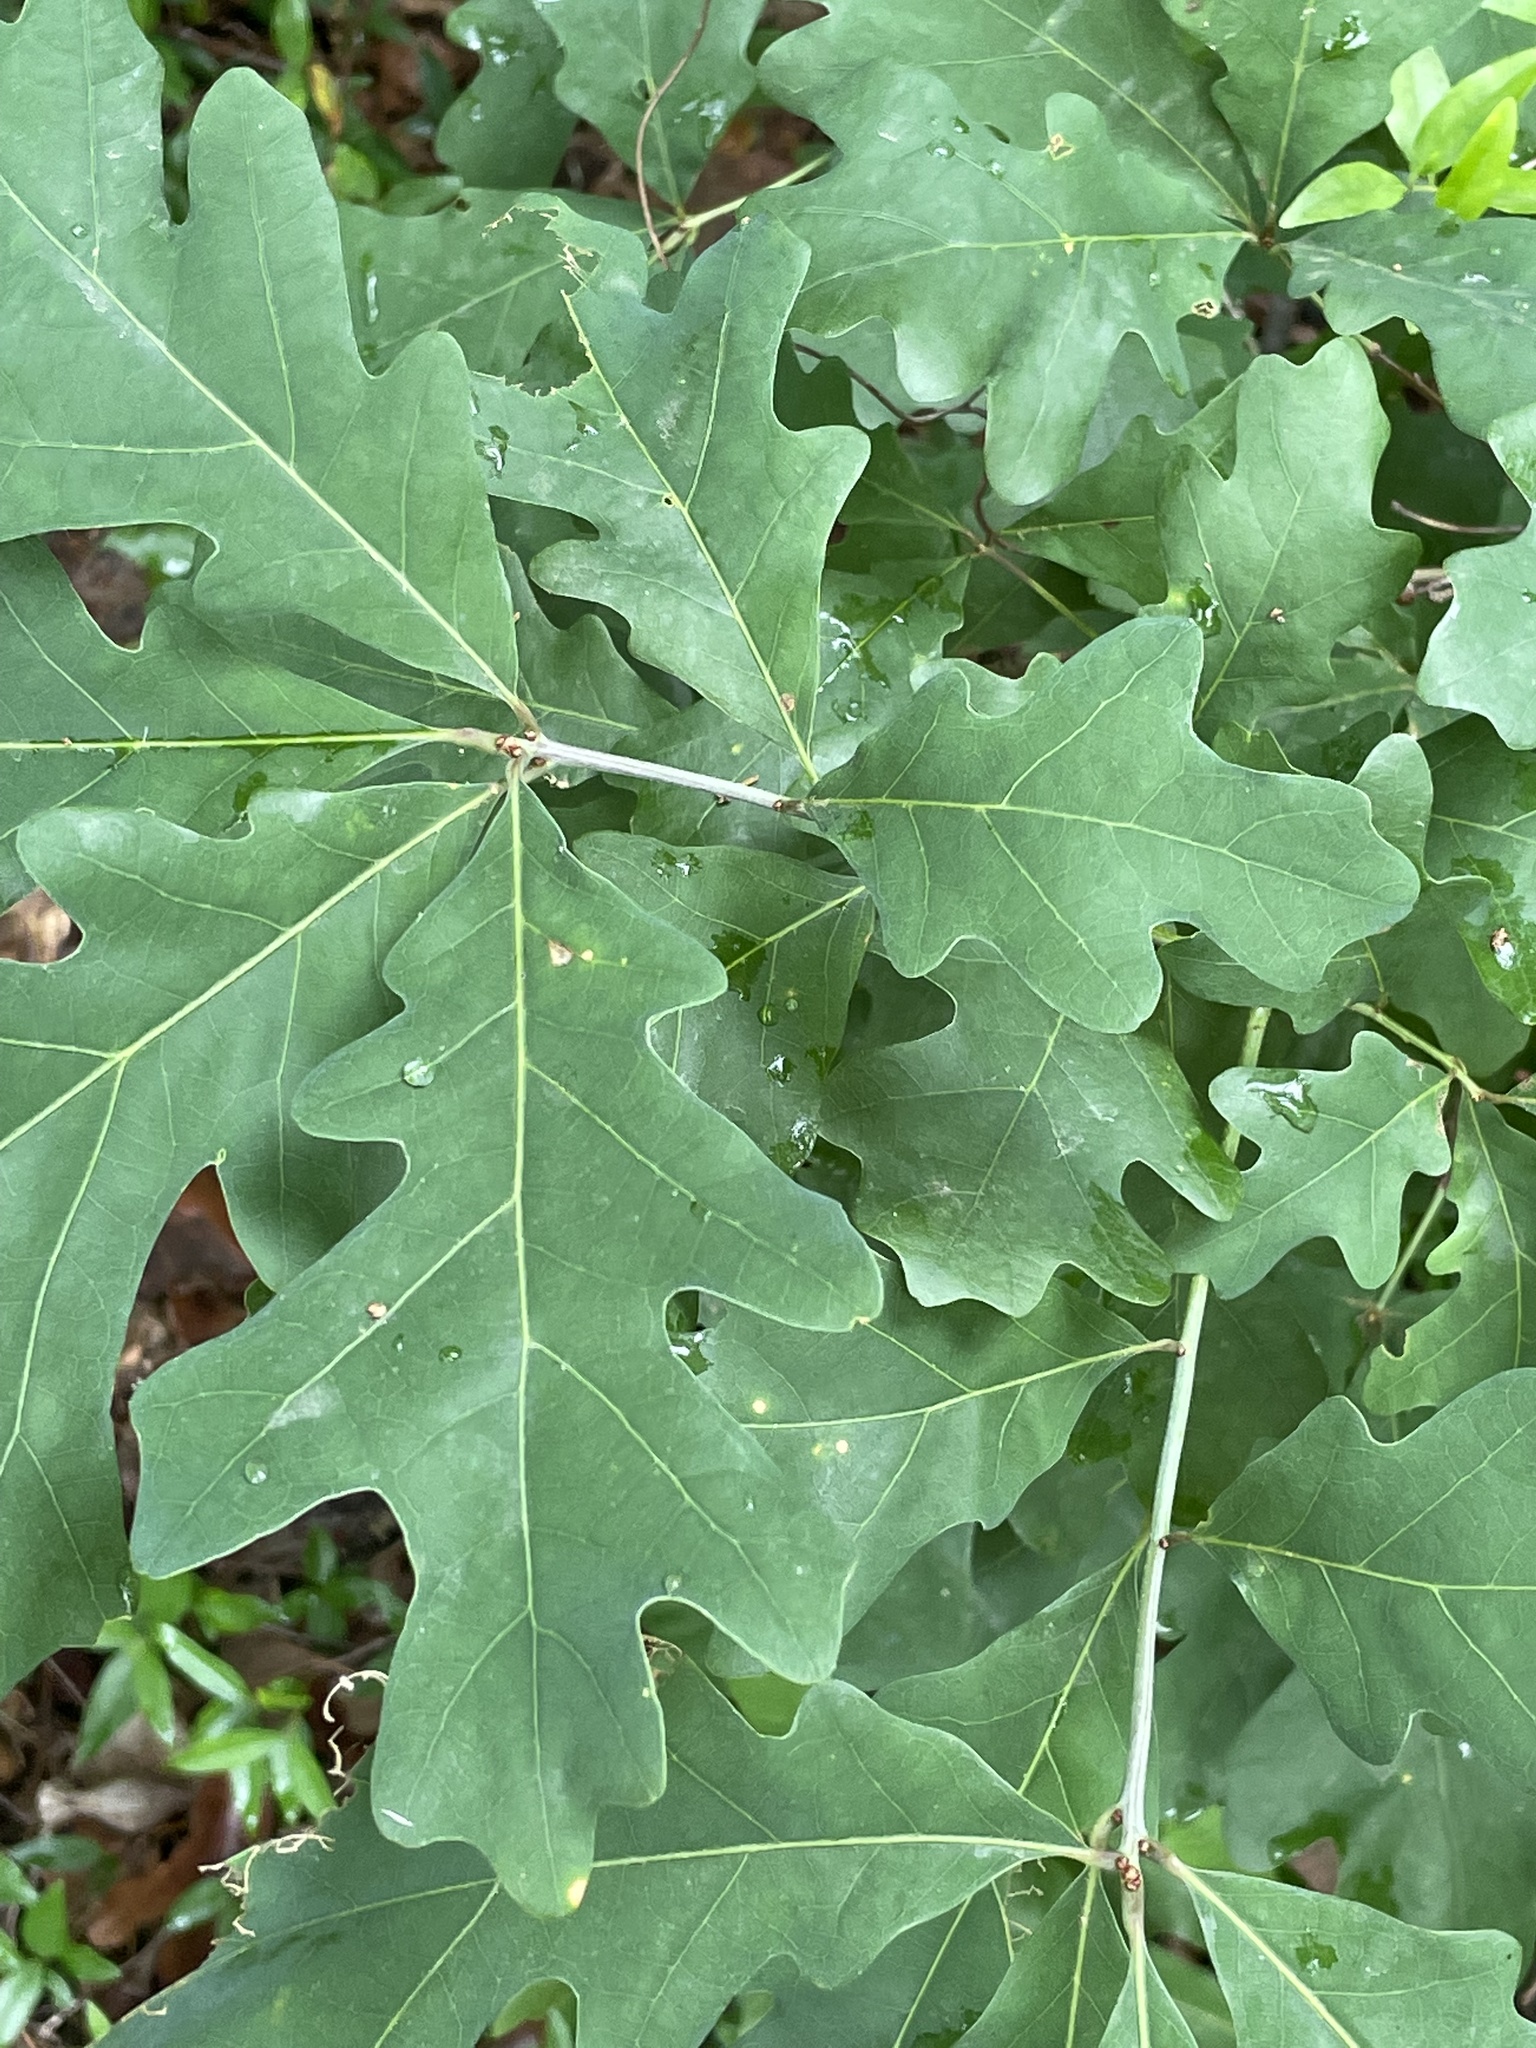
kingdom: Plantae
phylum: Tracheophyta
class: Magnoliopsida
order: Fagales
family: Fagaceae
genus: Quercus
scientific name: Quercus alba
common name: White oak
